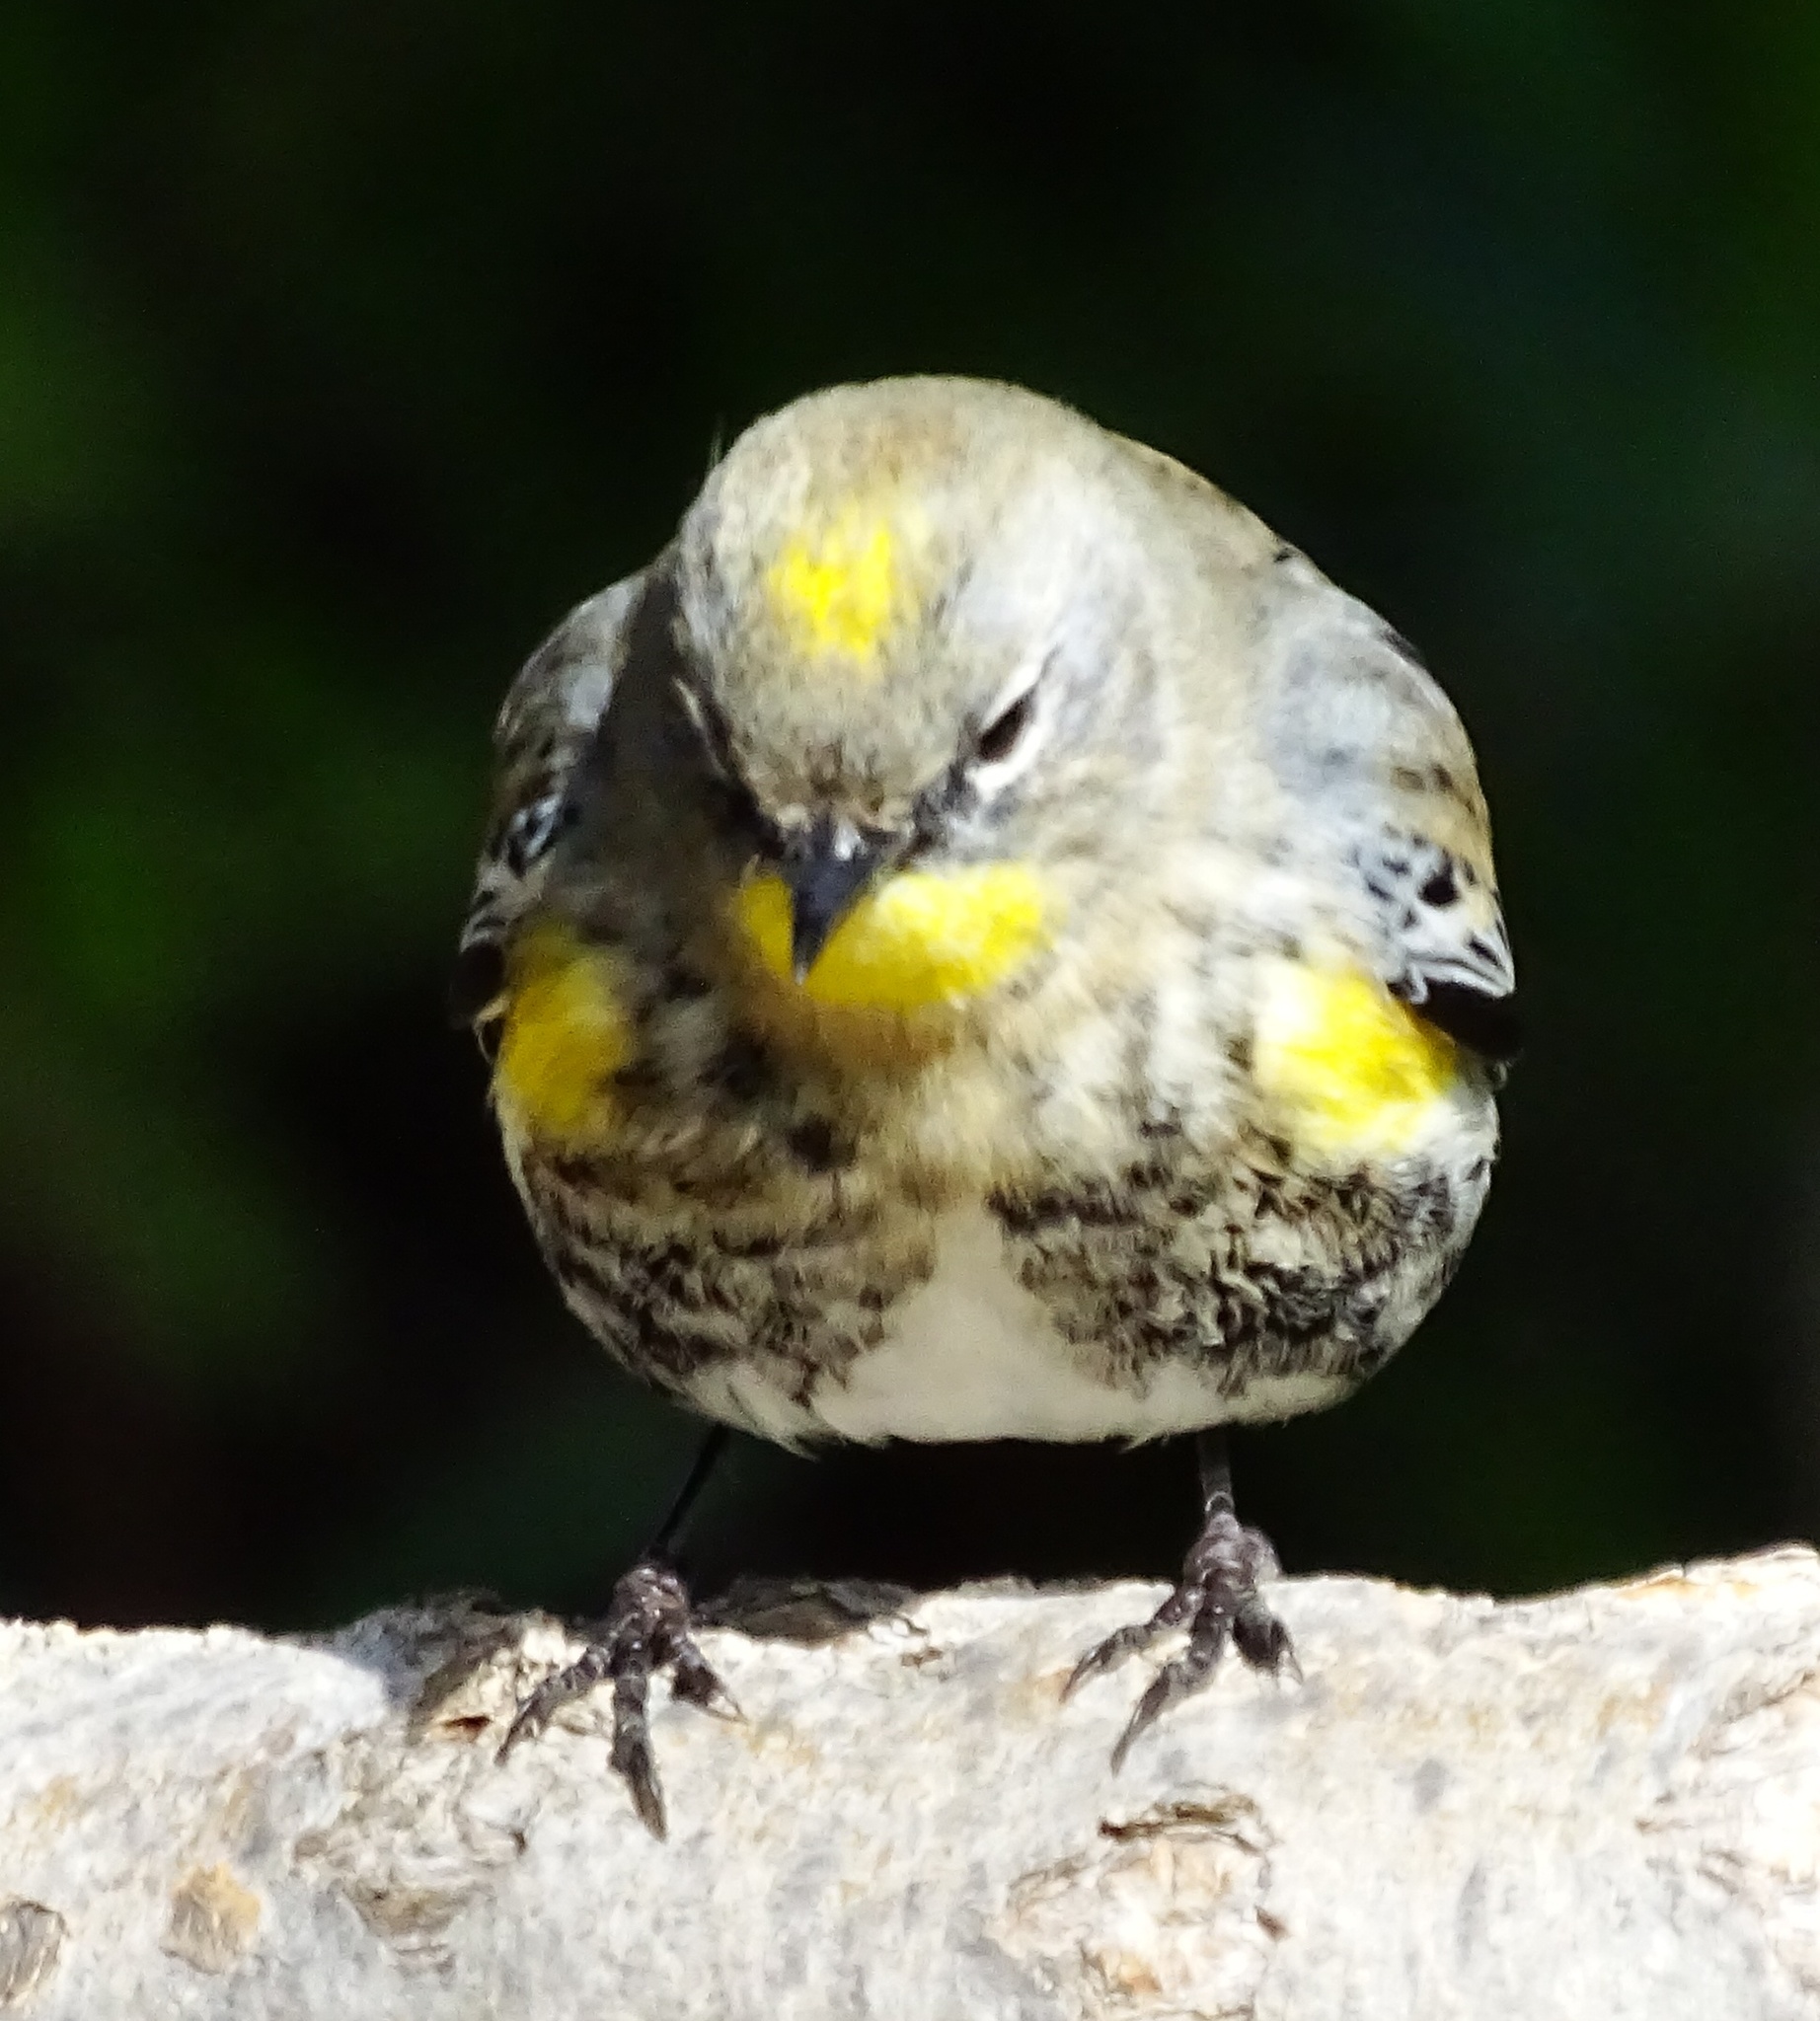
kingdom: Animalia
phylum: Chordata
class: Aves
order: Passeriformes
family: Parulidae
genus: Setophaga
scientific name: Setophaga coronata
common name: Myrtle warbler
